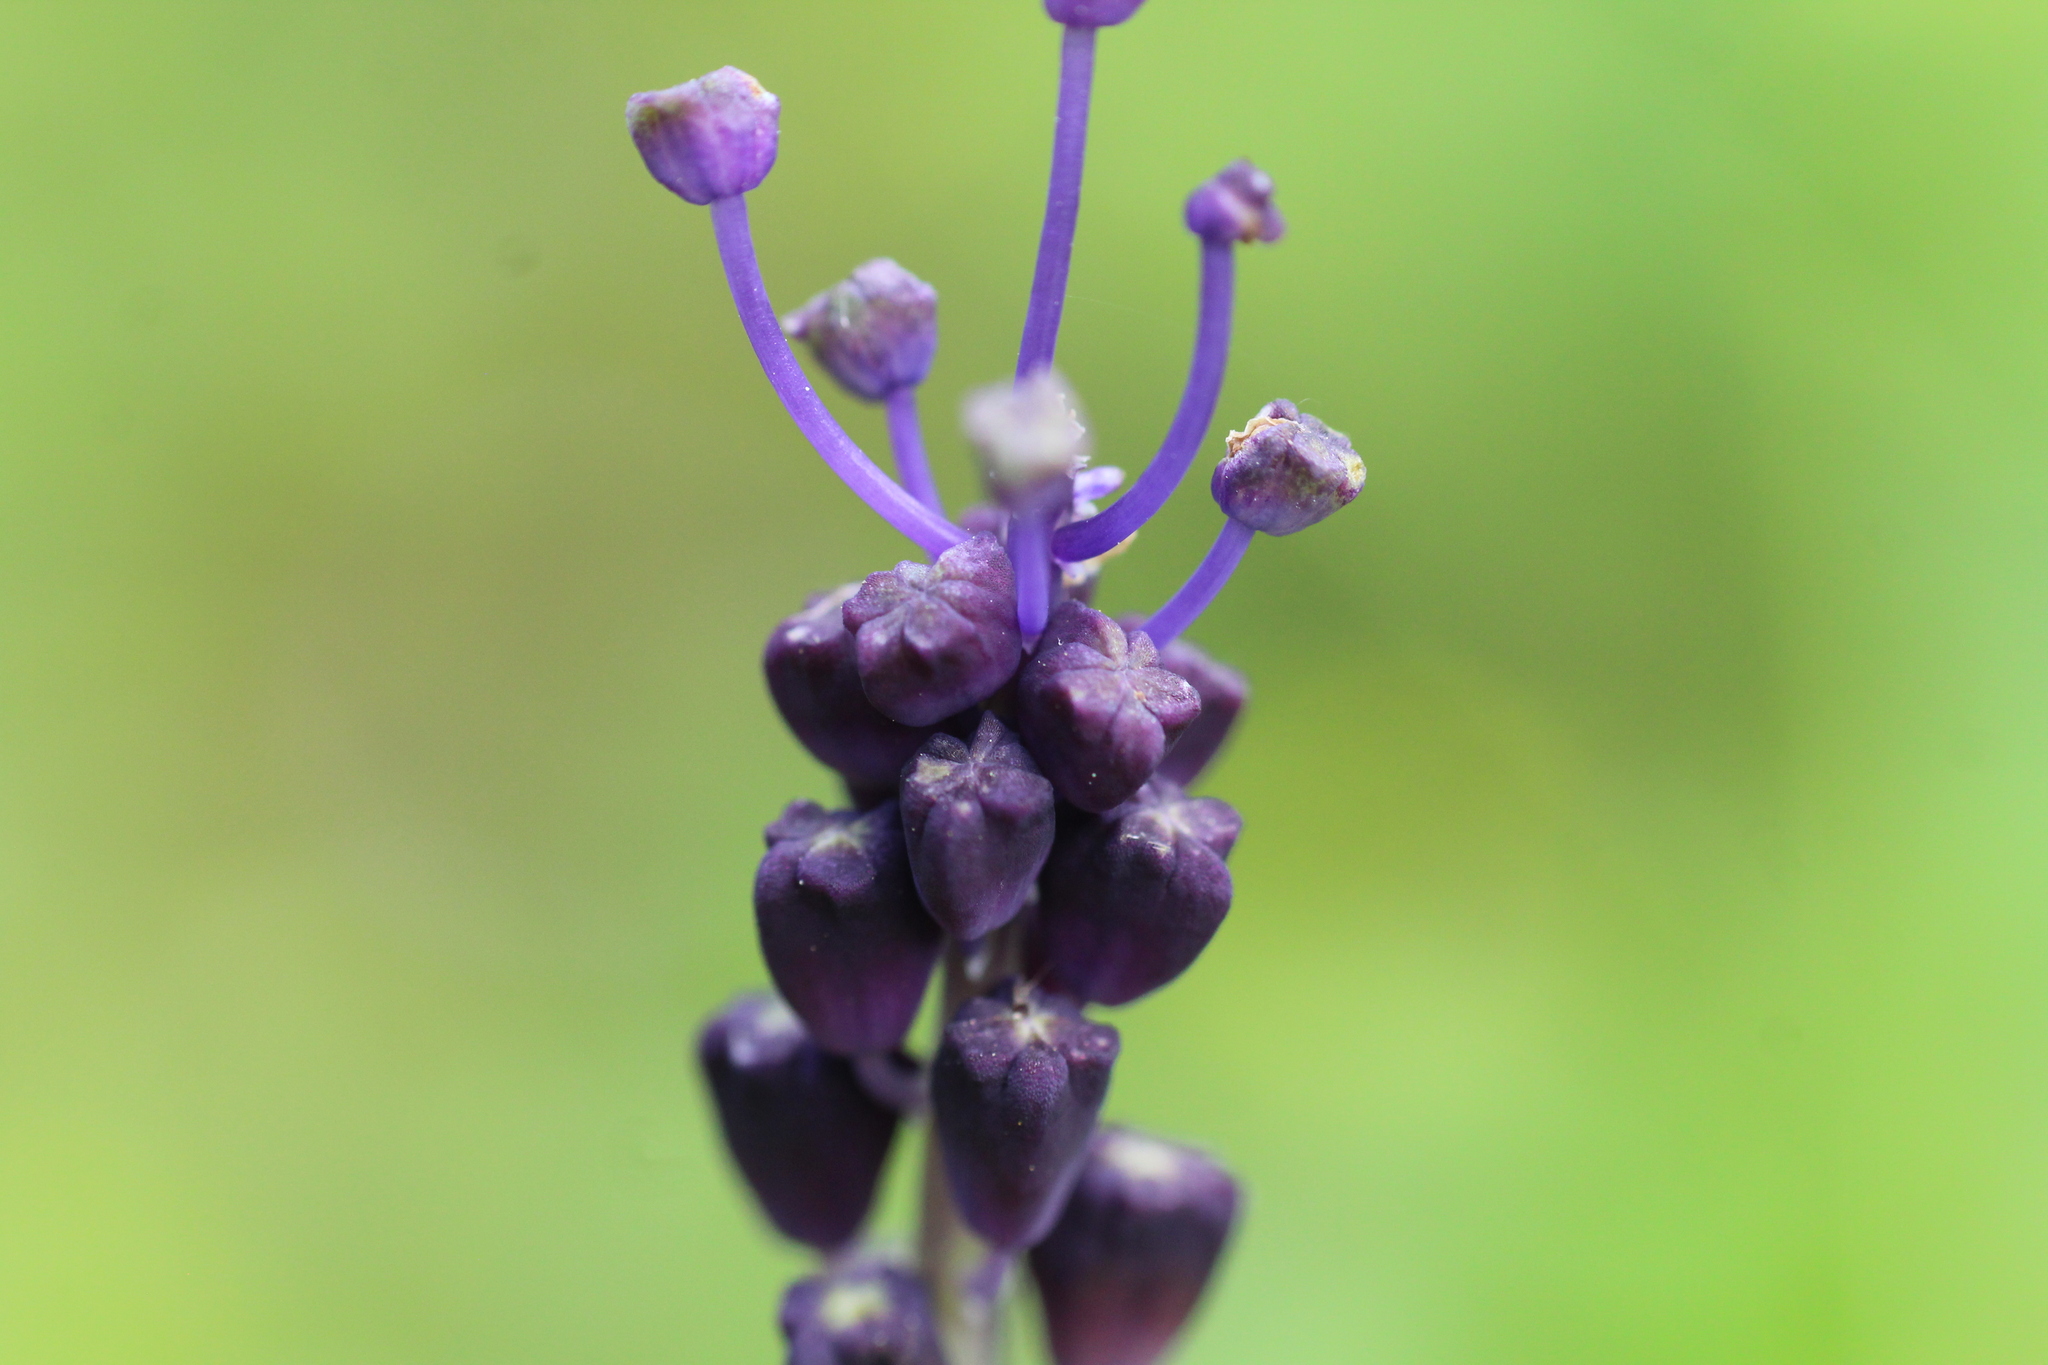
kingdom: Plantae
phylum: Tracheophyta
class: Liliopsida
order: Asparagales
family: Asparagaceae
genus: Muscari
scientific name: Muscari comosum
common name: Tassel hyacinth
